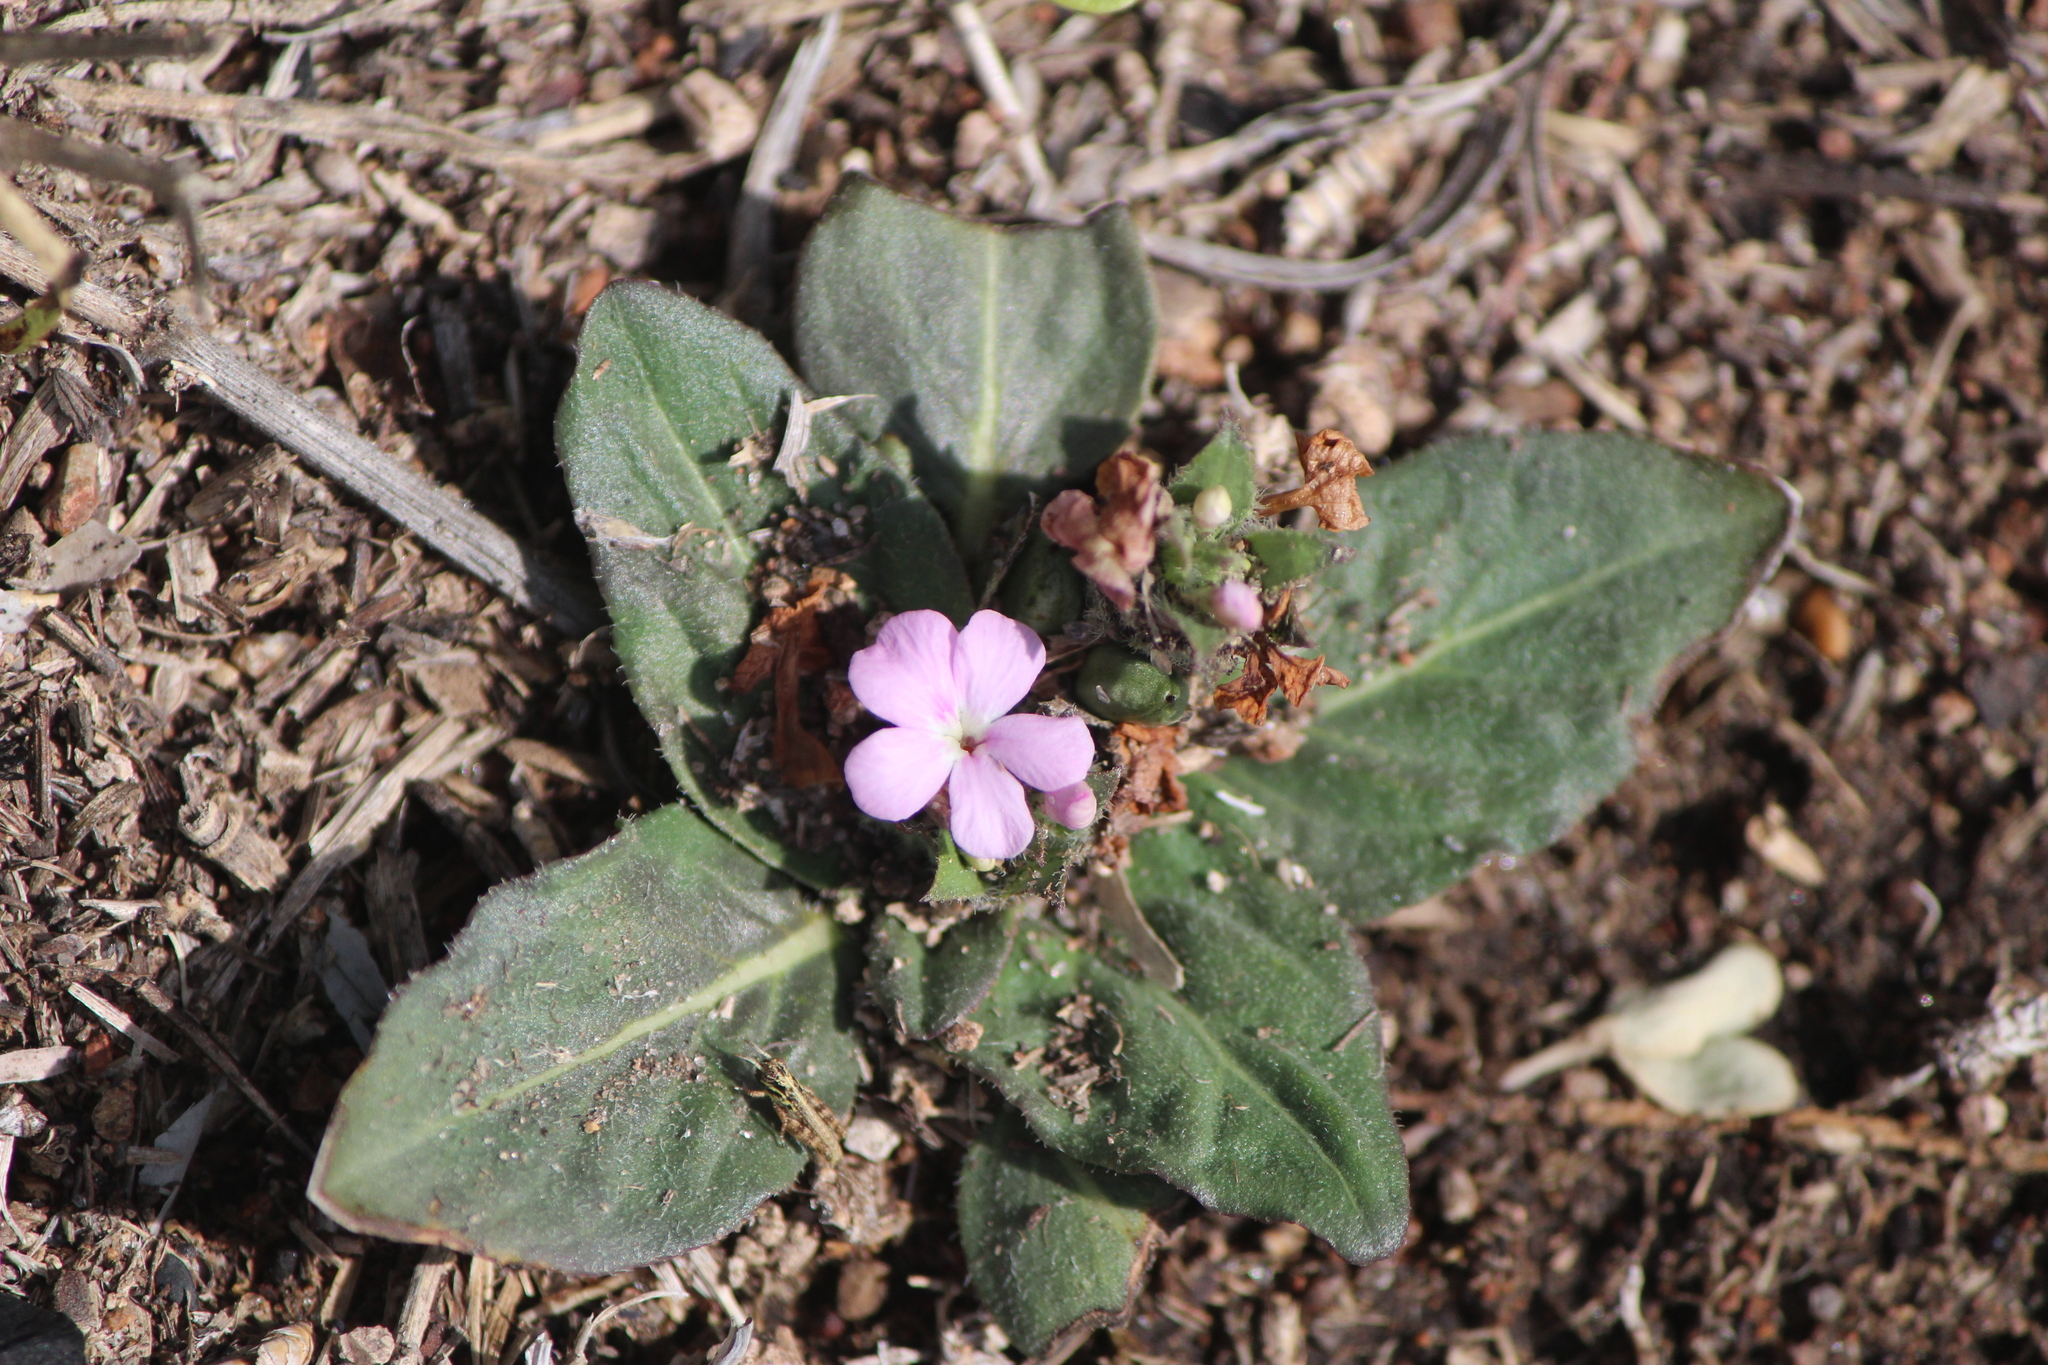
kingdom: Plantae
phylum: Tracheophyta
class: Magnoliopsida
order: Lamiales
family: Acanthaceae
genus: Stenandrium
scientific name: Stenandrium dulce
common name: Pinklet
